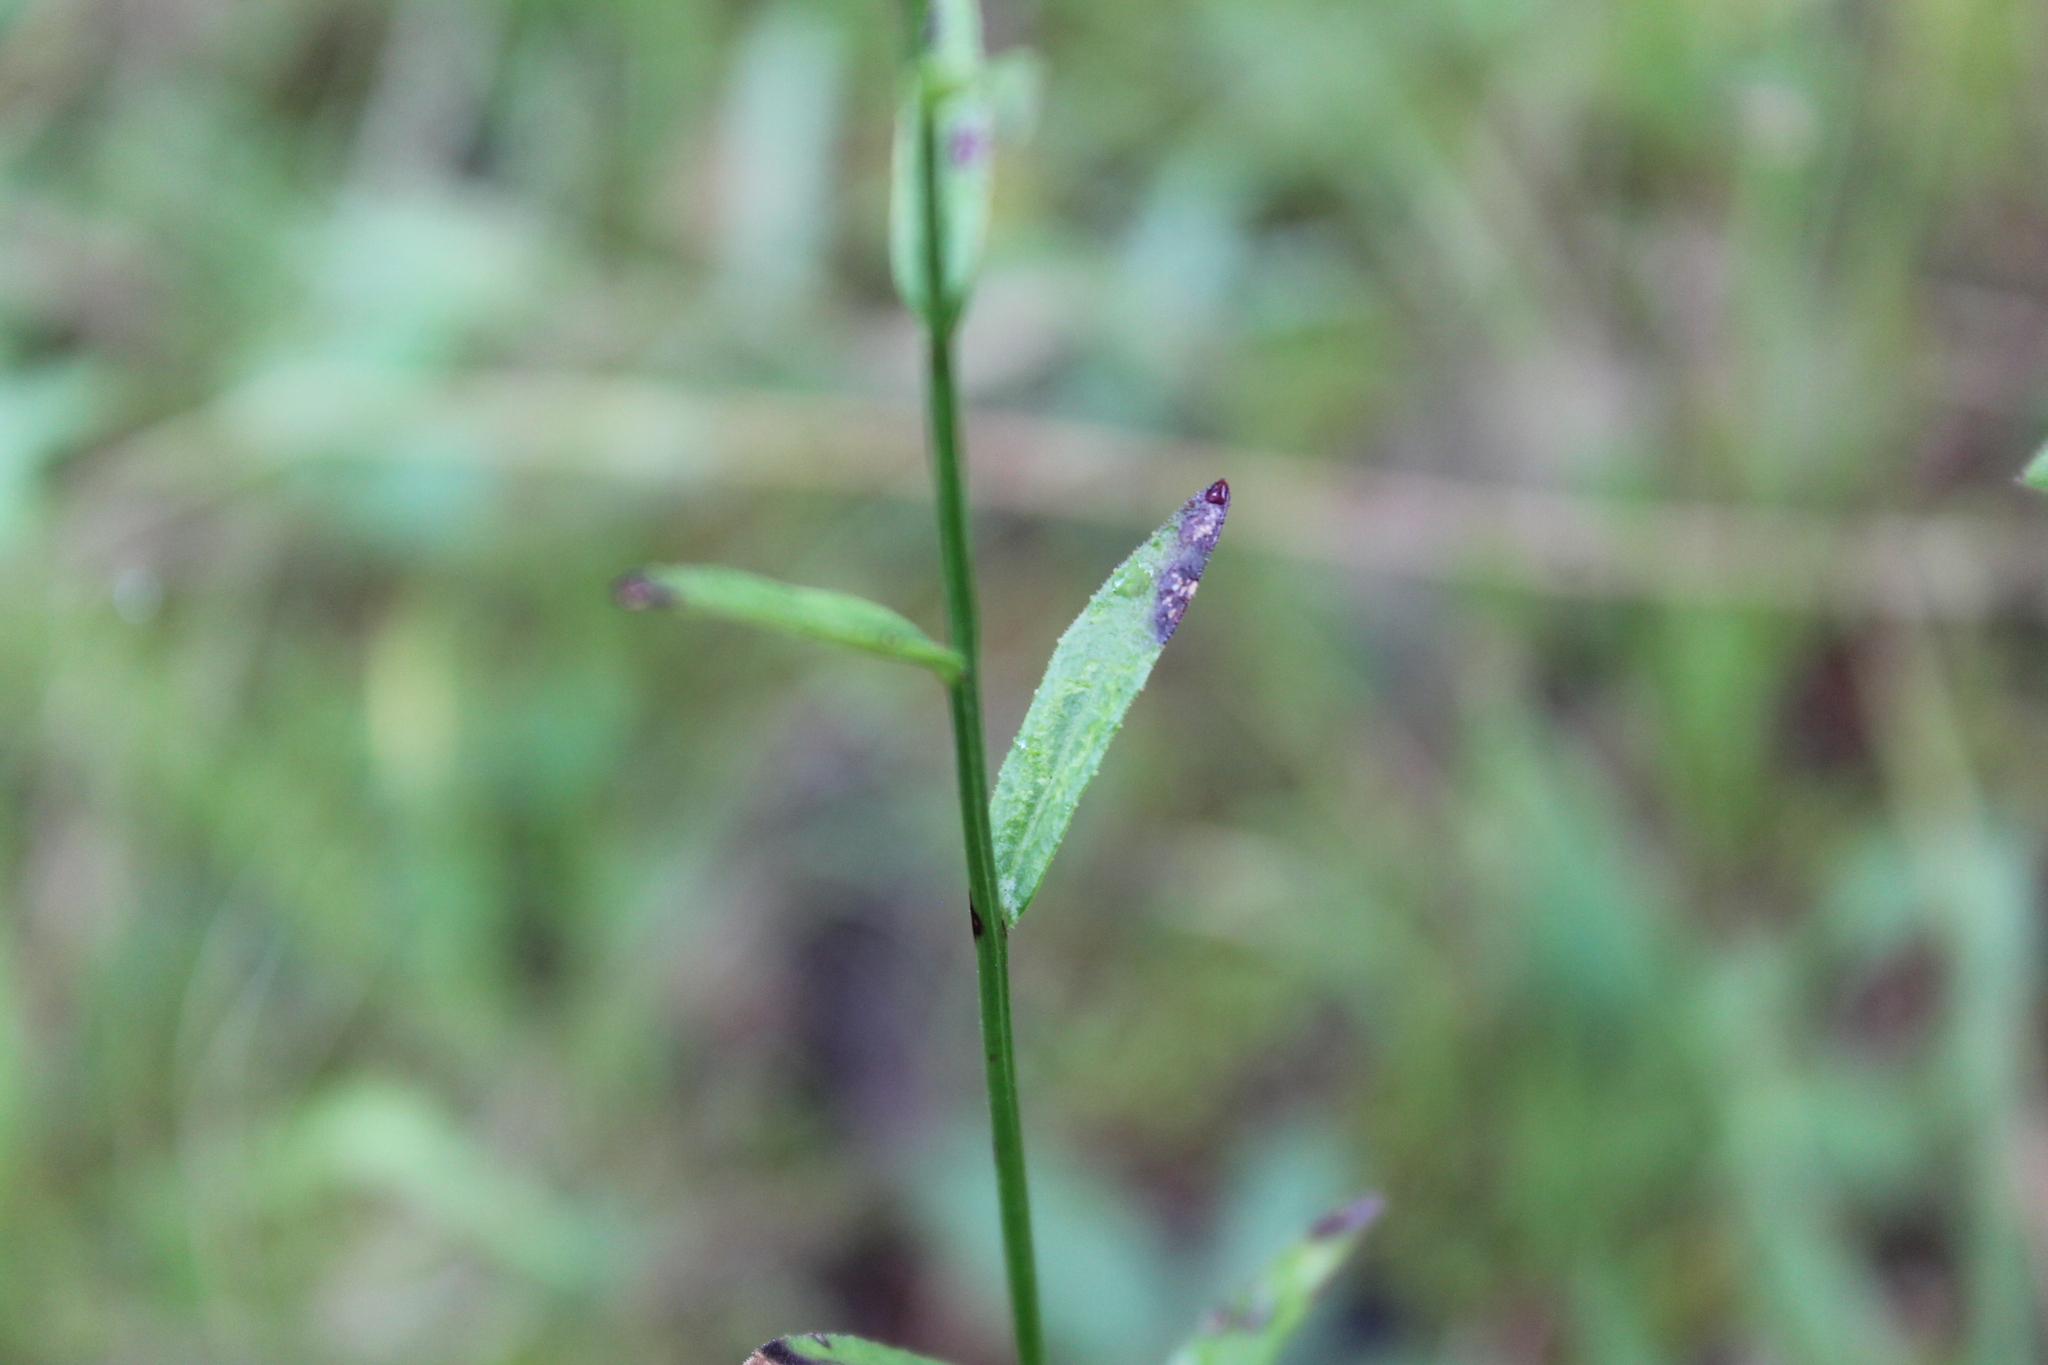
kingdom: Plantae
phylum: Tracheophyta
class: Magnoliopsida
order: Asterales
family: Campanulaceae
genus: Lobelia
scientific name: Lobelia spicata
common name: Pale-spike lobelia
